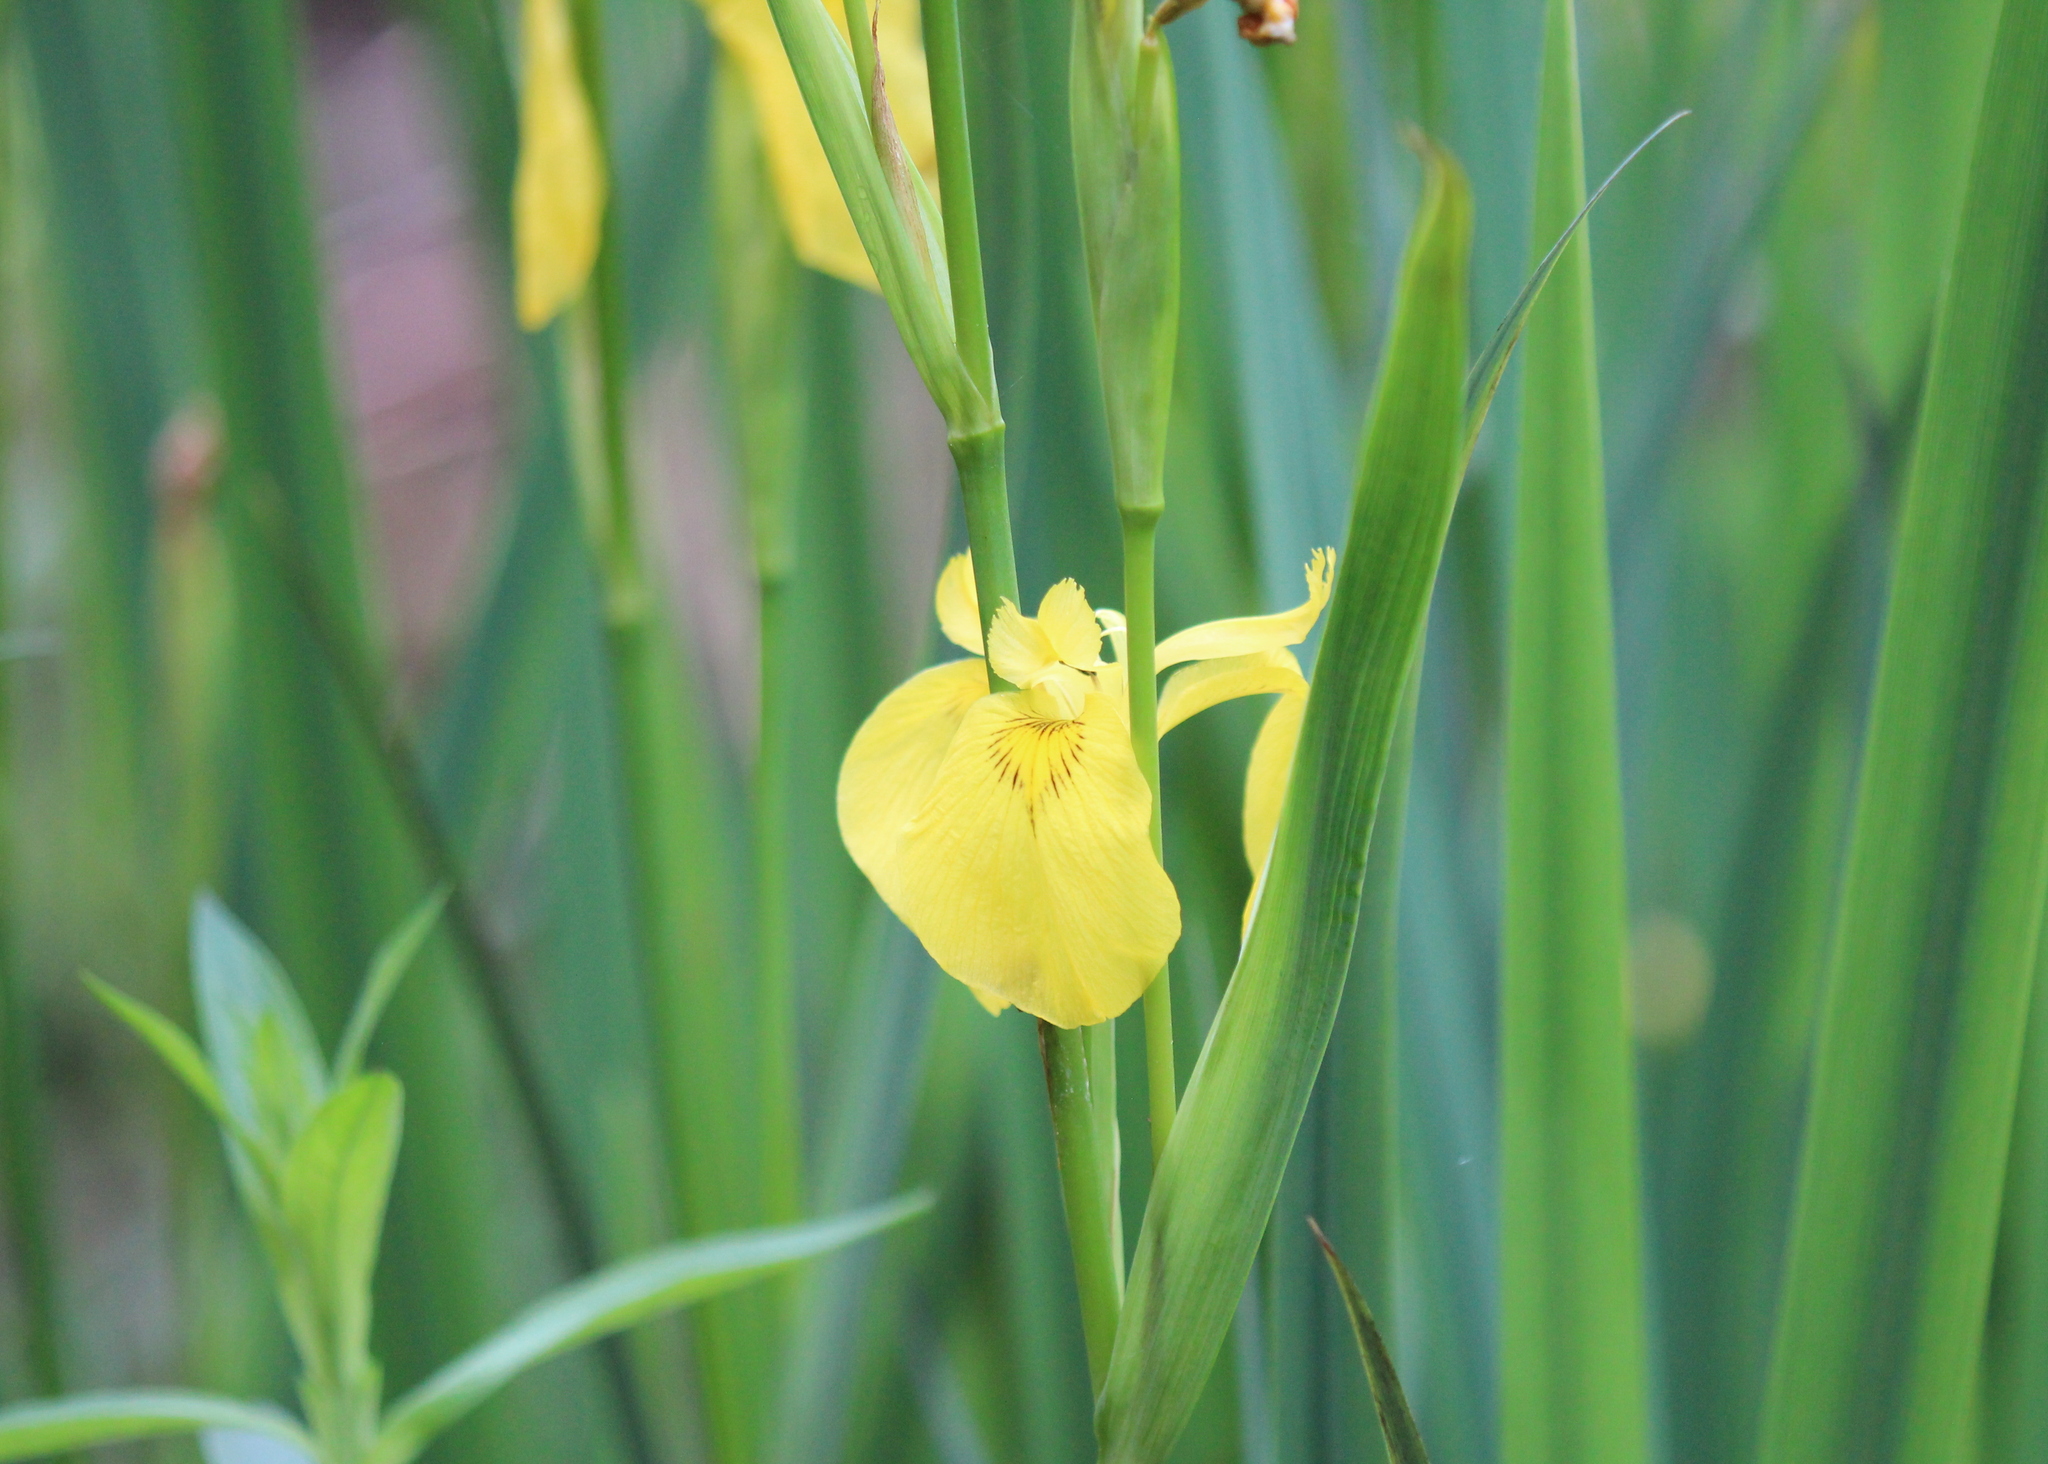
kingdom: Plantae
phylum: Tracheophyta
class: Liliopsida
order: Asparagales
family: Iridaceae
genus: Iris
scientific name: Iris pseudacorus
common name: Yellow flag
